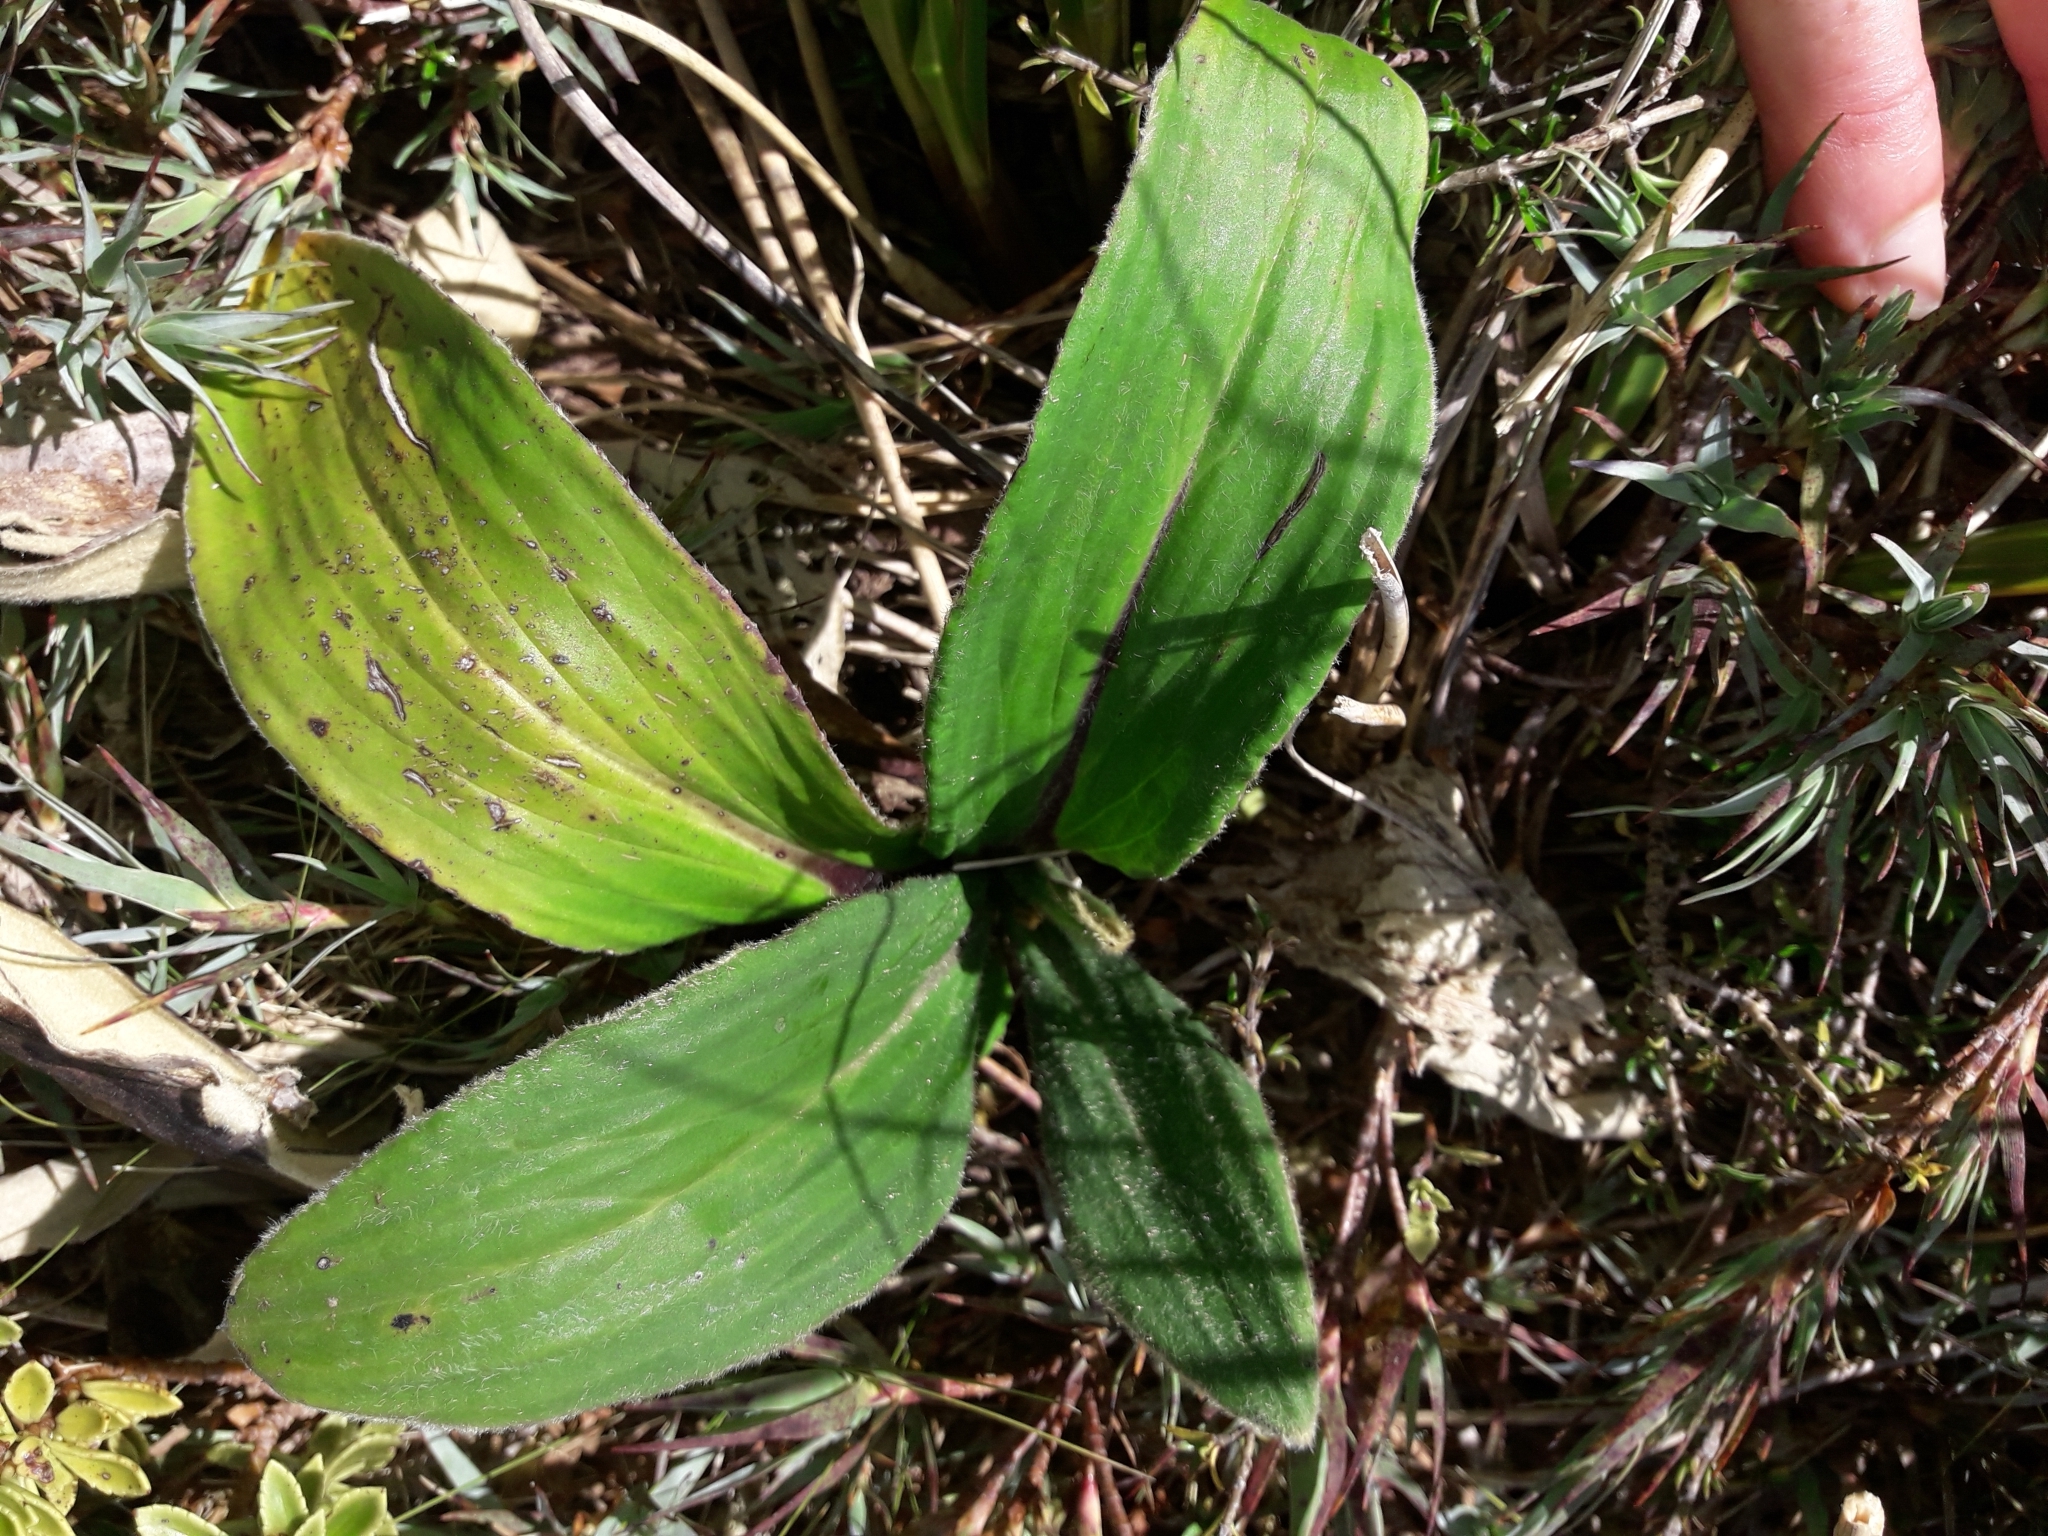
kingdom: Plantae
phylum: Tracheophyta
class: Magnoliopsida
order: Asterales
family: Asteraceae
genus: Celmisia
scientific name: Celmisia verbascifolia
